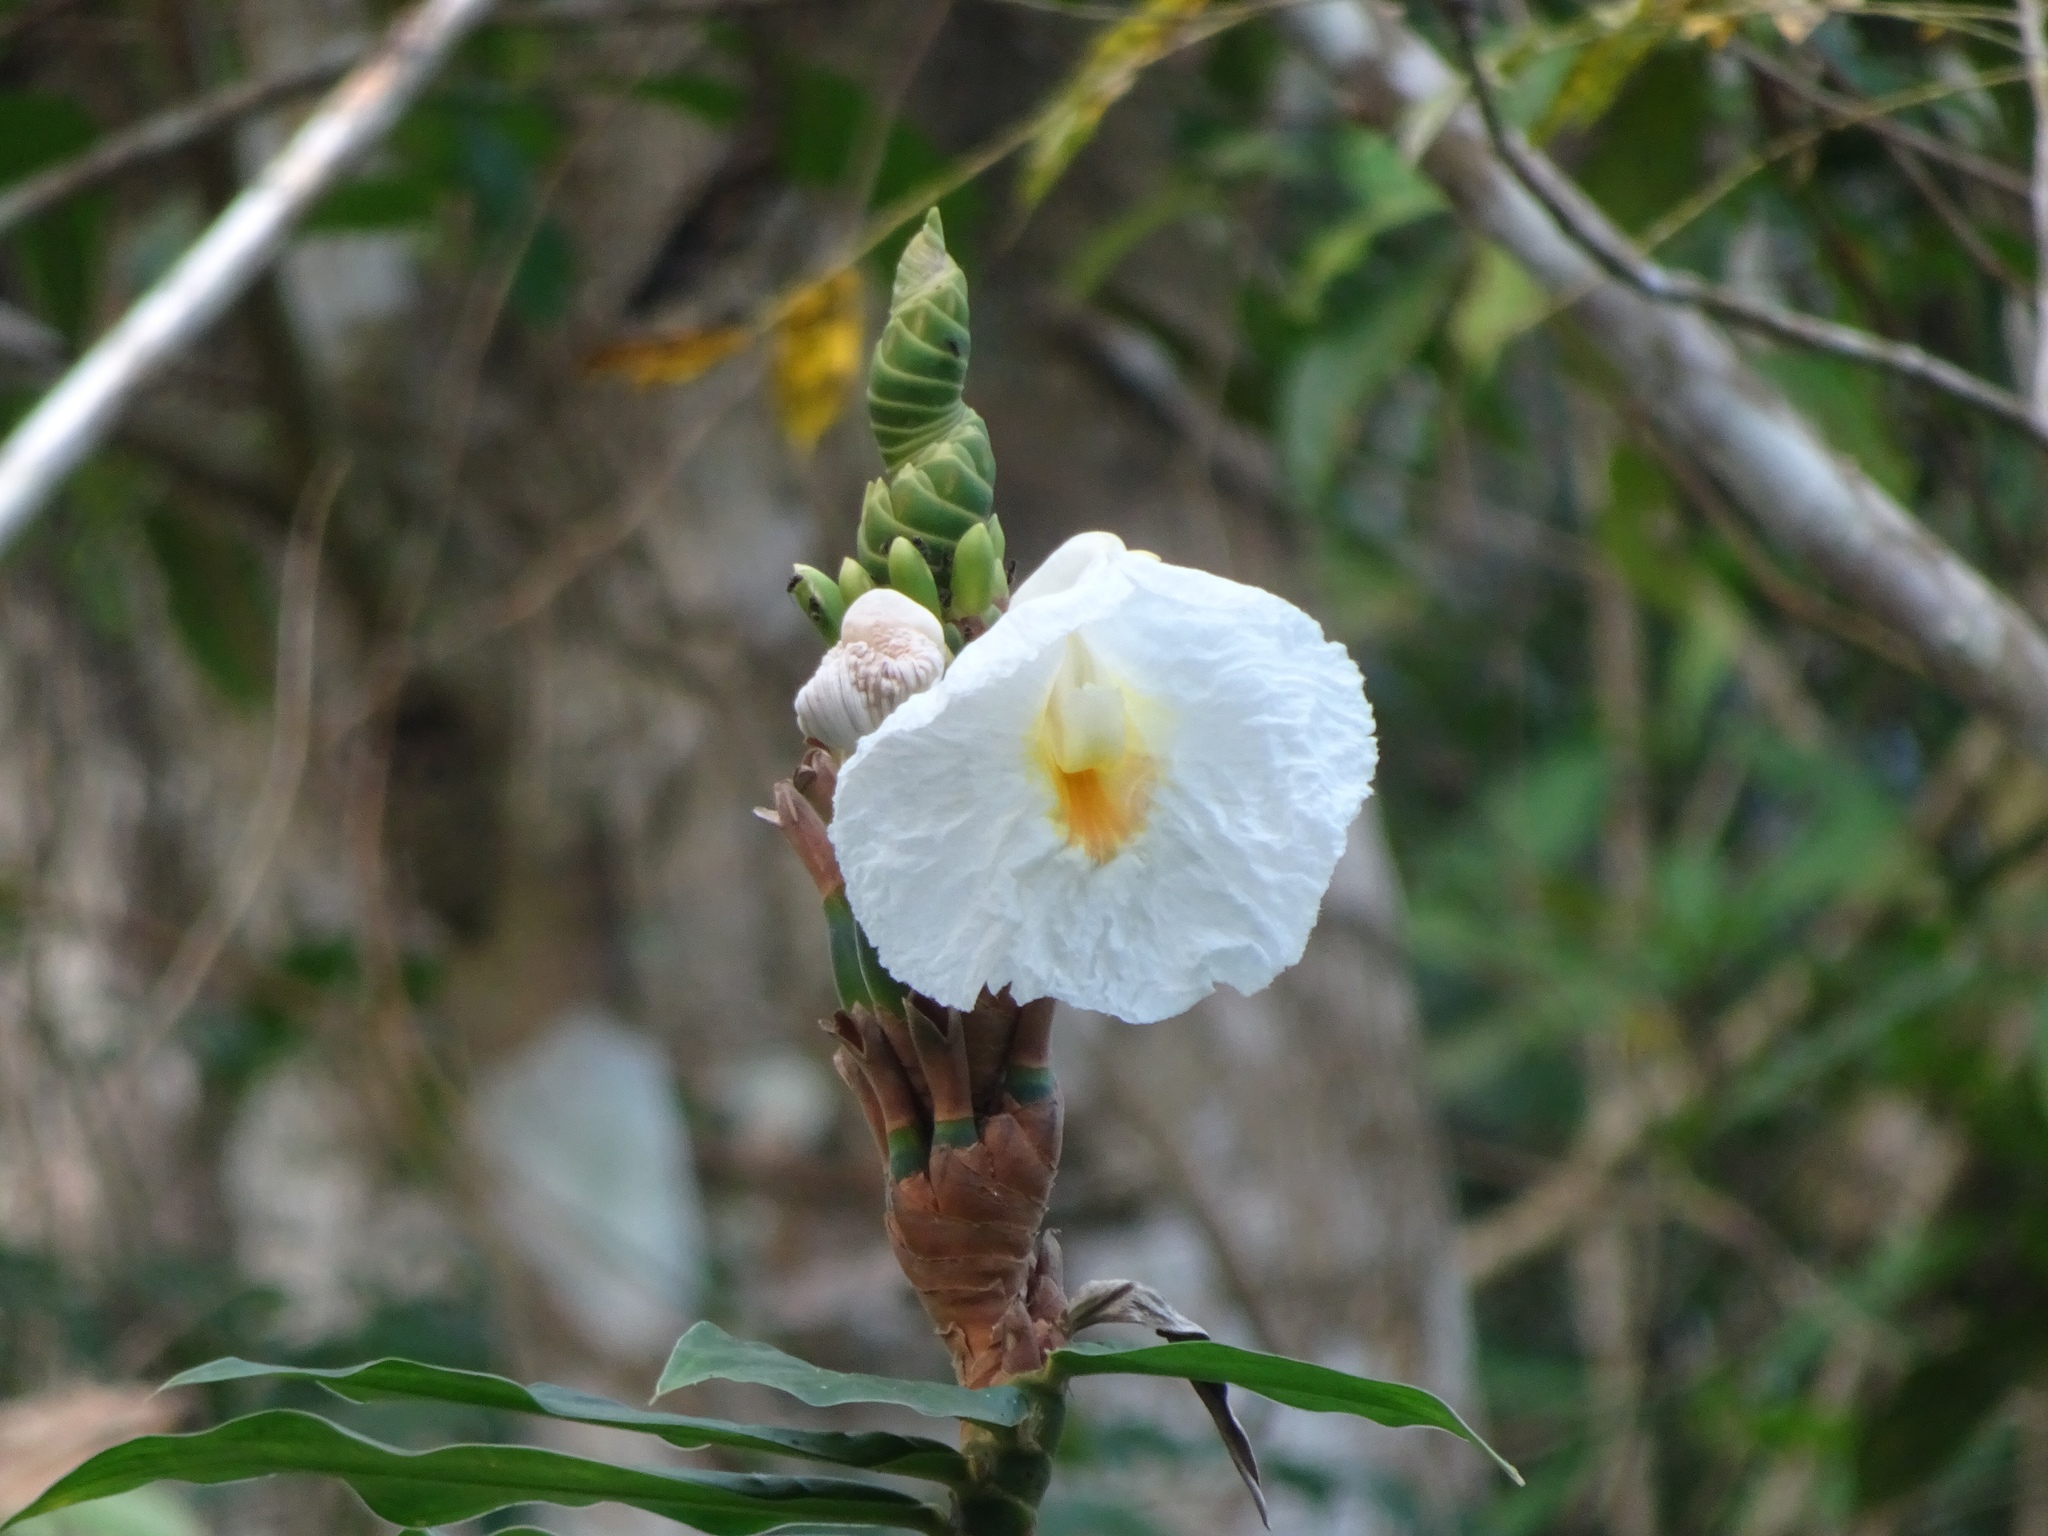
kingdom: Plantae
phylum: Tracheophyta
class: Liliopsida
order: Zingiberales
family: Costaceae
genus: Hellenia
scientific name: Hellenia speciosa
